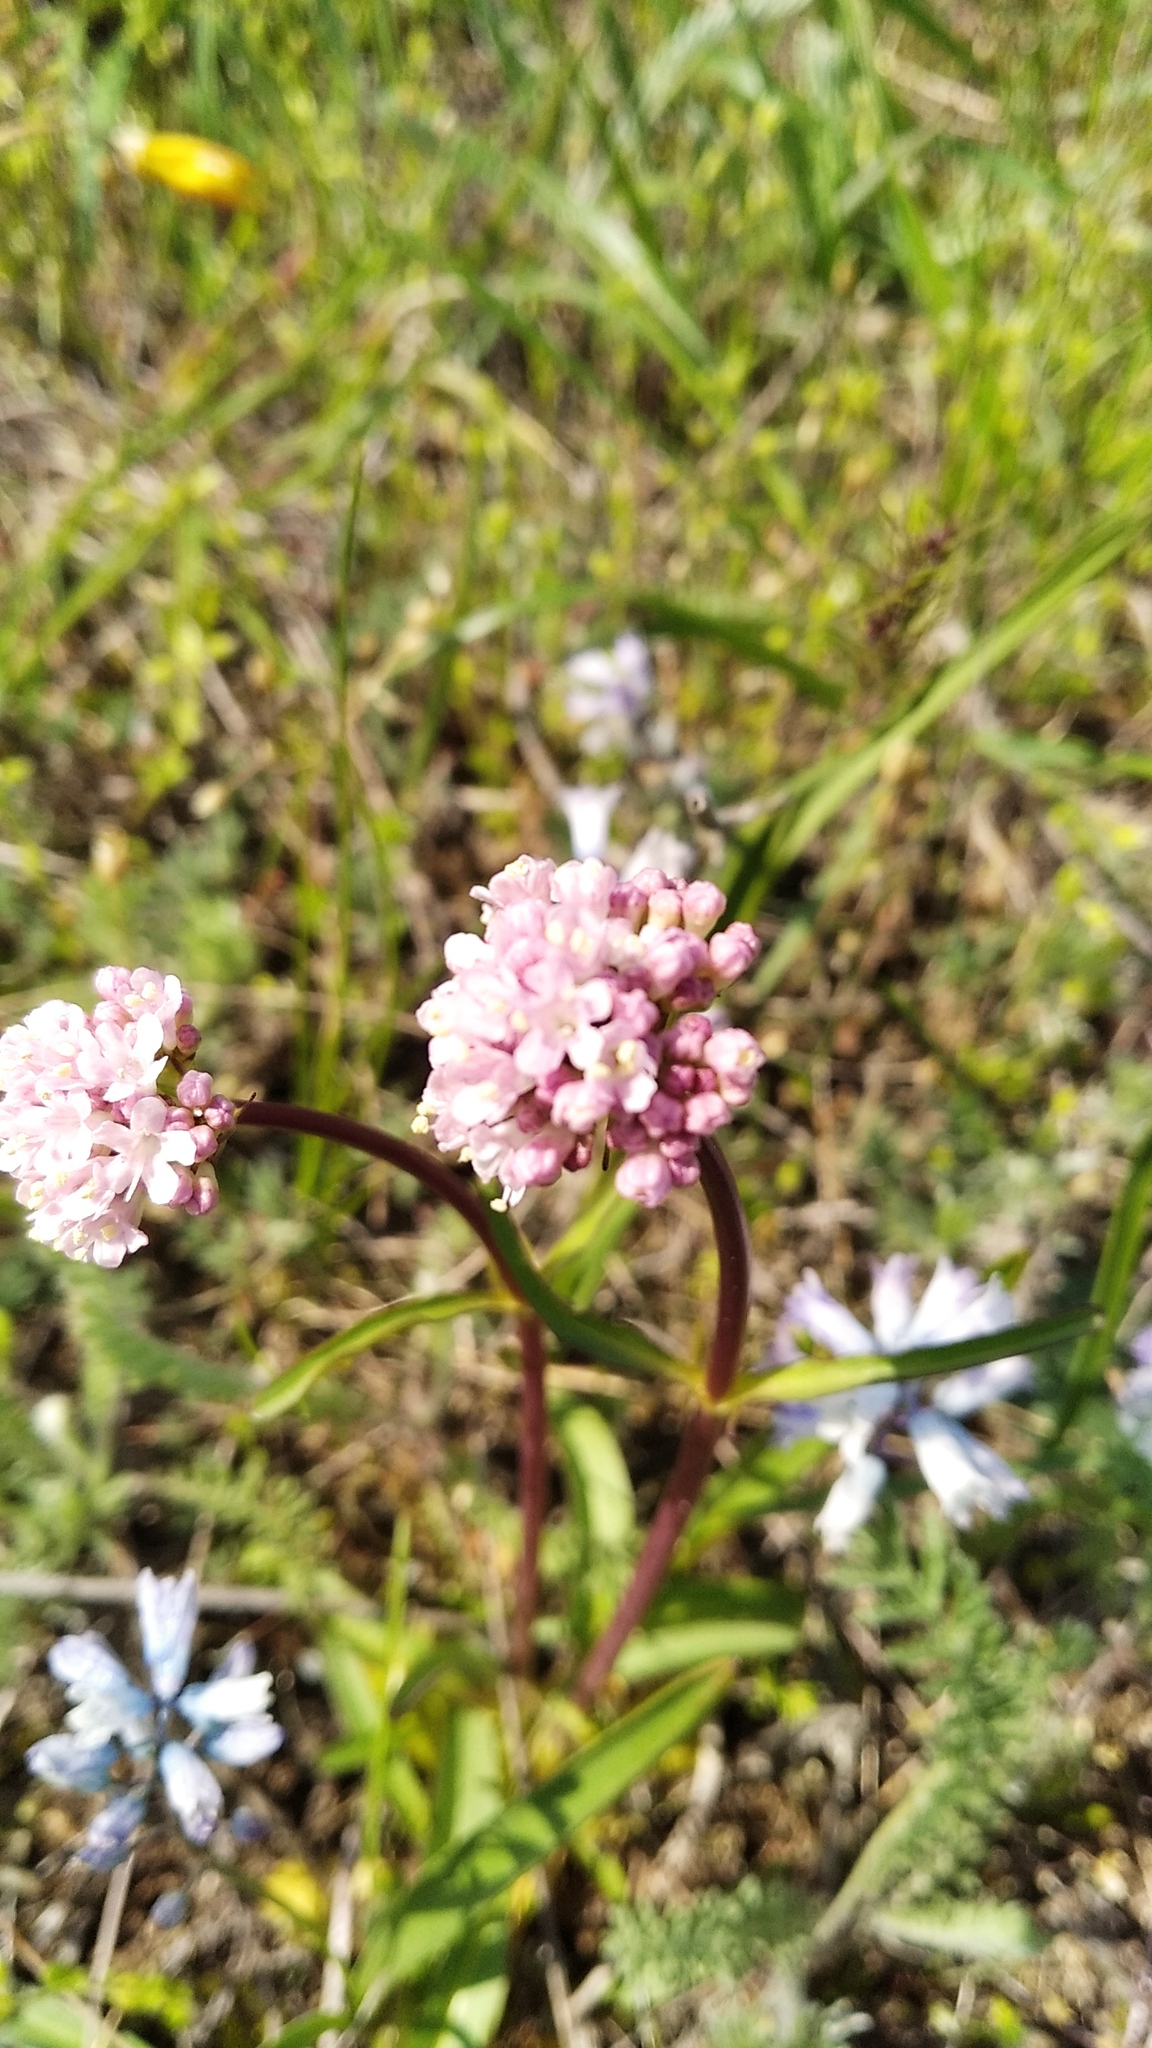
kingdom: Plantae
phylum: Tracheophyta
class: Magnoliopsida
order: Dipsacales
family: Caprifoliaceae
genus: Valeriana
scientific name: Valeriana tuberosa
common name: Tuberous valerian
